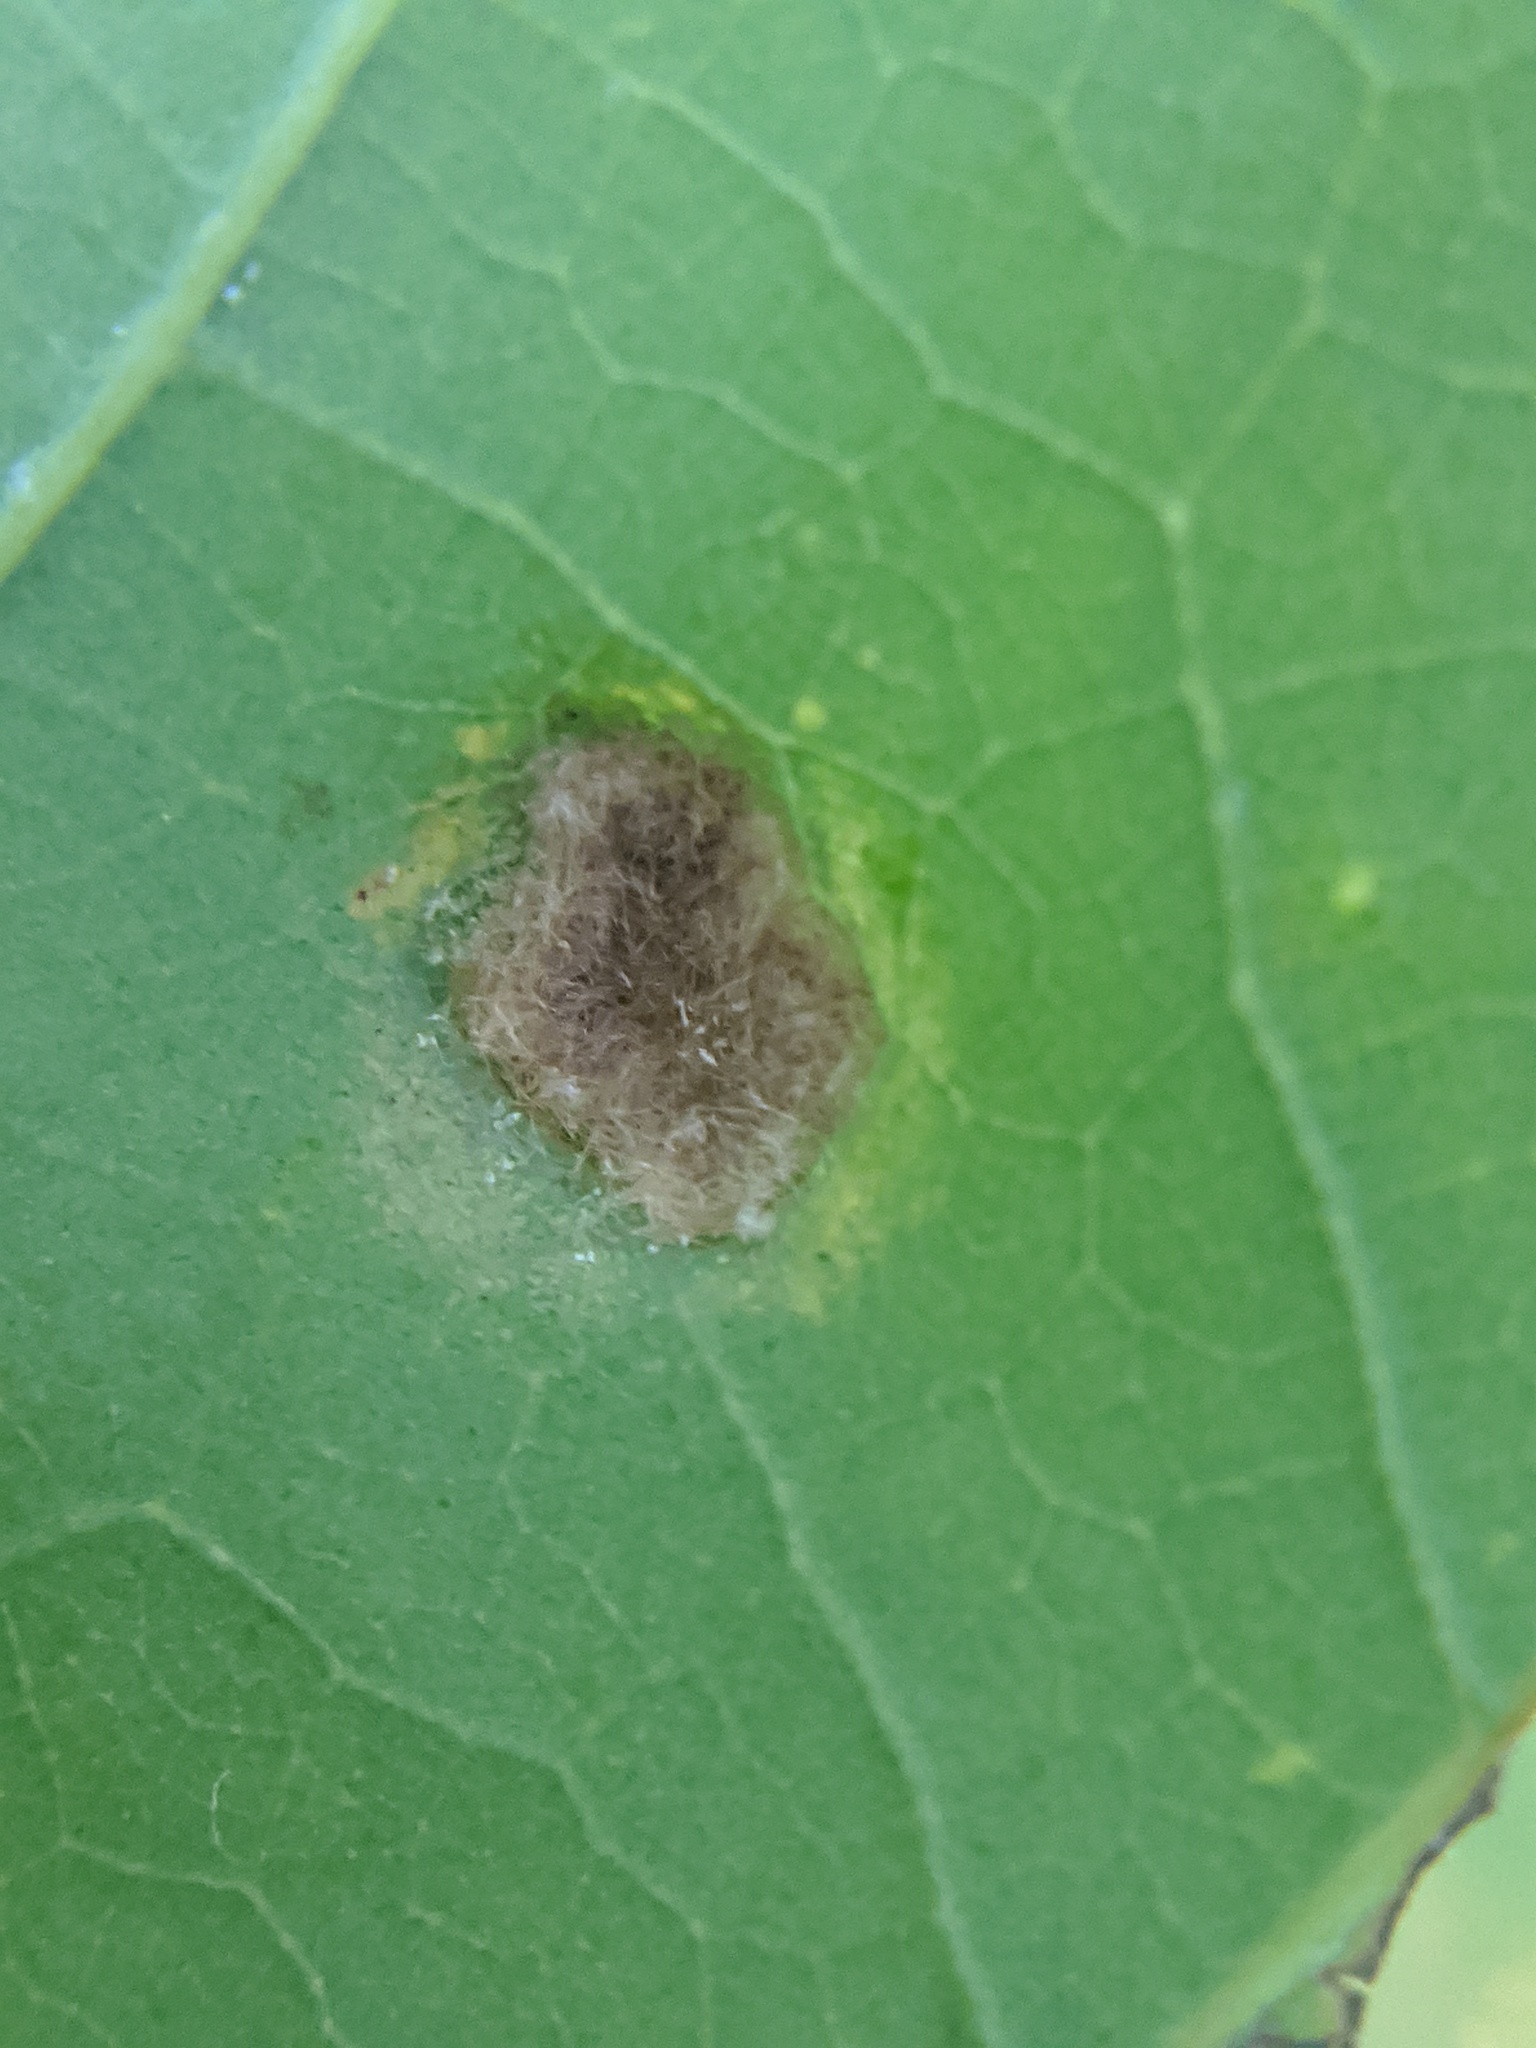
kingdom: Animalia
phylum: Arthropoda
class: Arachnida
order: Trombidiformes
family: Eriophyidae
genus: Aceria
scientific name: Aceria
